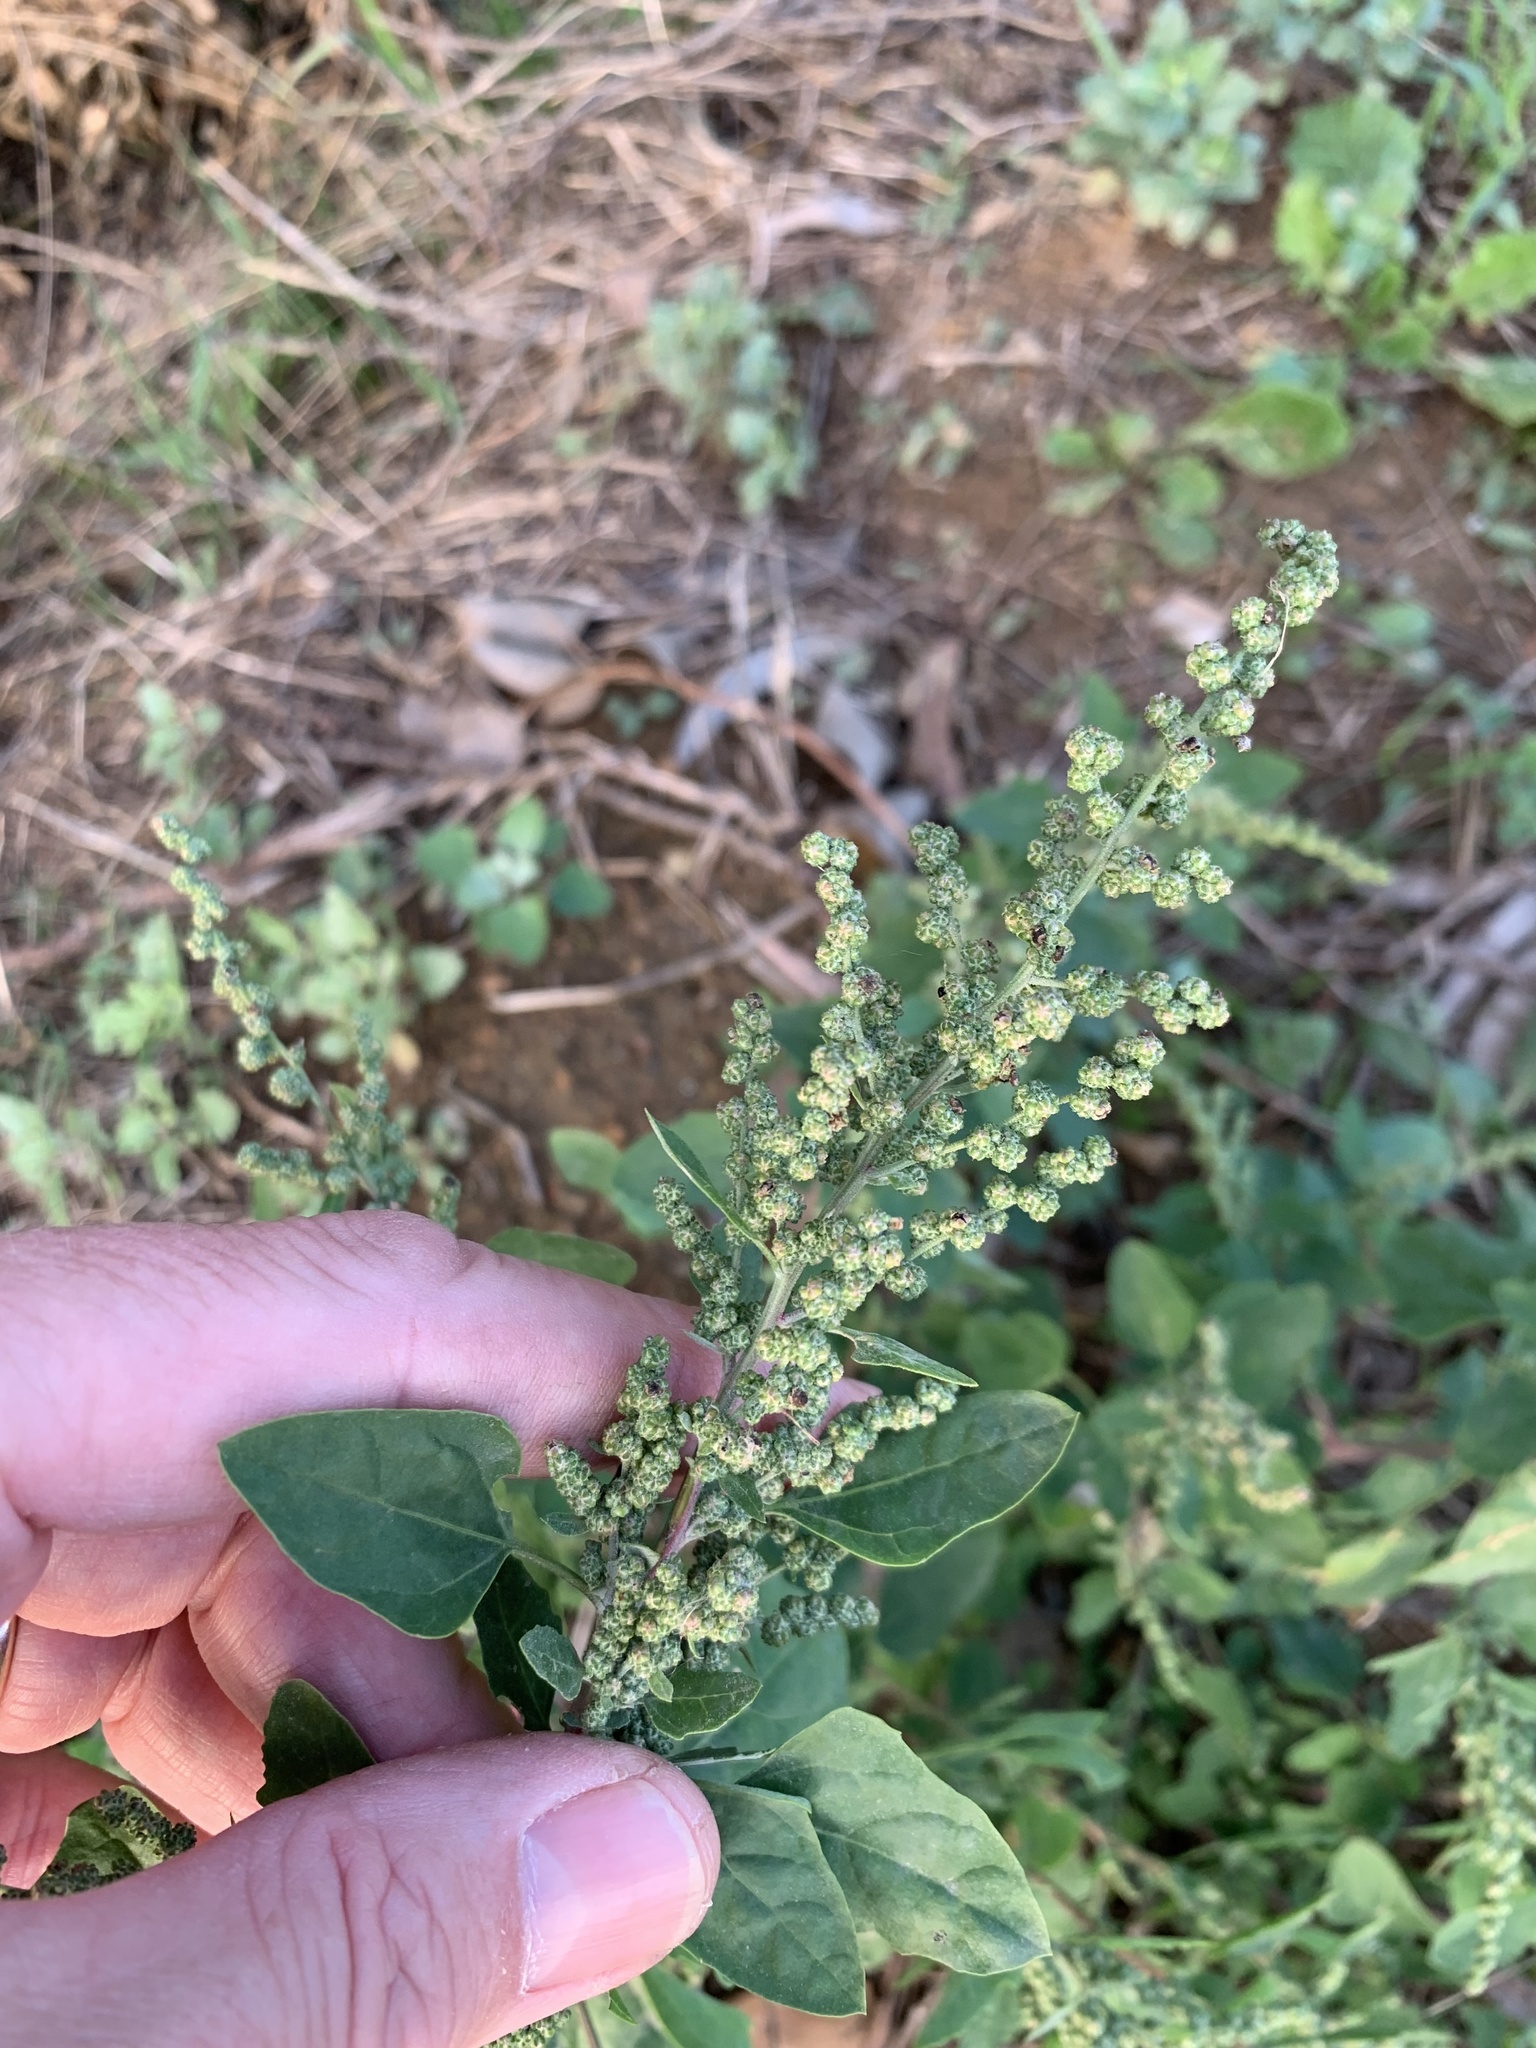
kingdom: Plantae
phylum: Tracheophyta
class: Magnoliopsida
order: Caryophyllales
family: Amaranthaceae
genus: Chenopodium
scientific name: Chenopodium album
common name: Fat-hen
